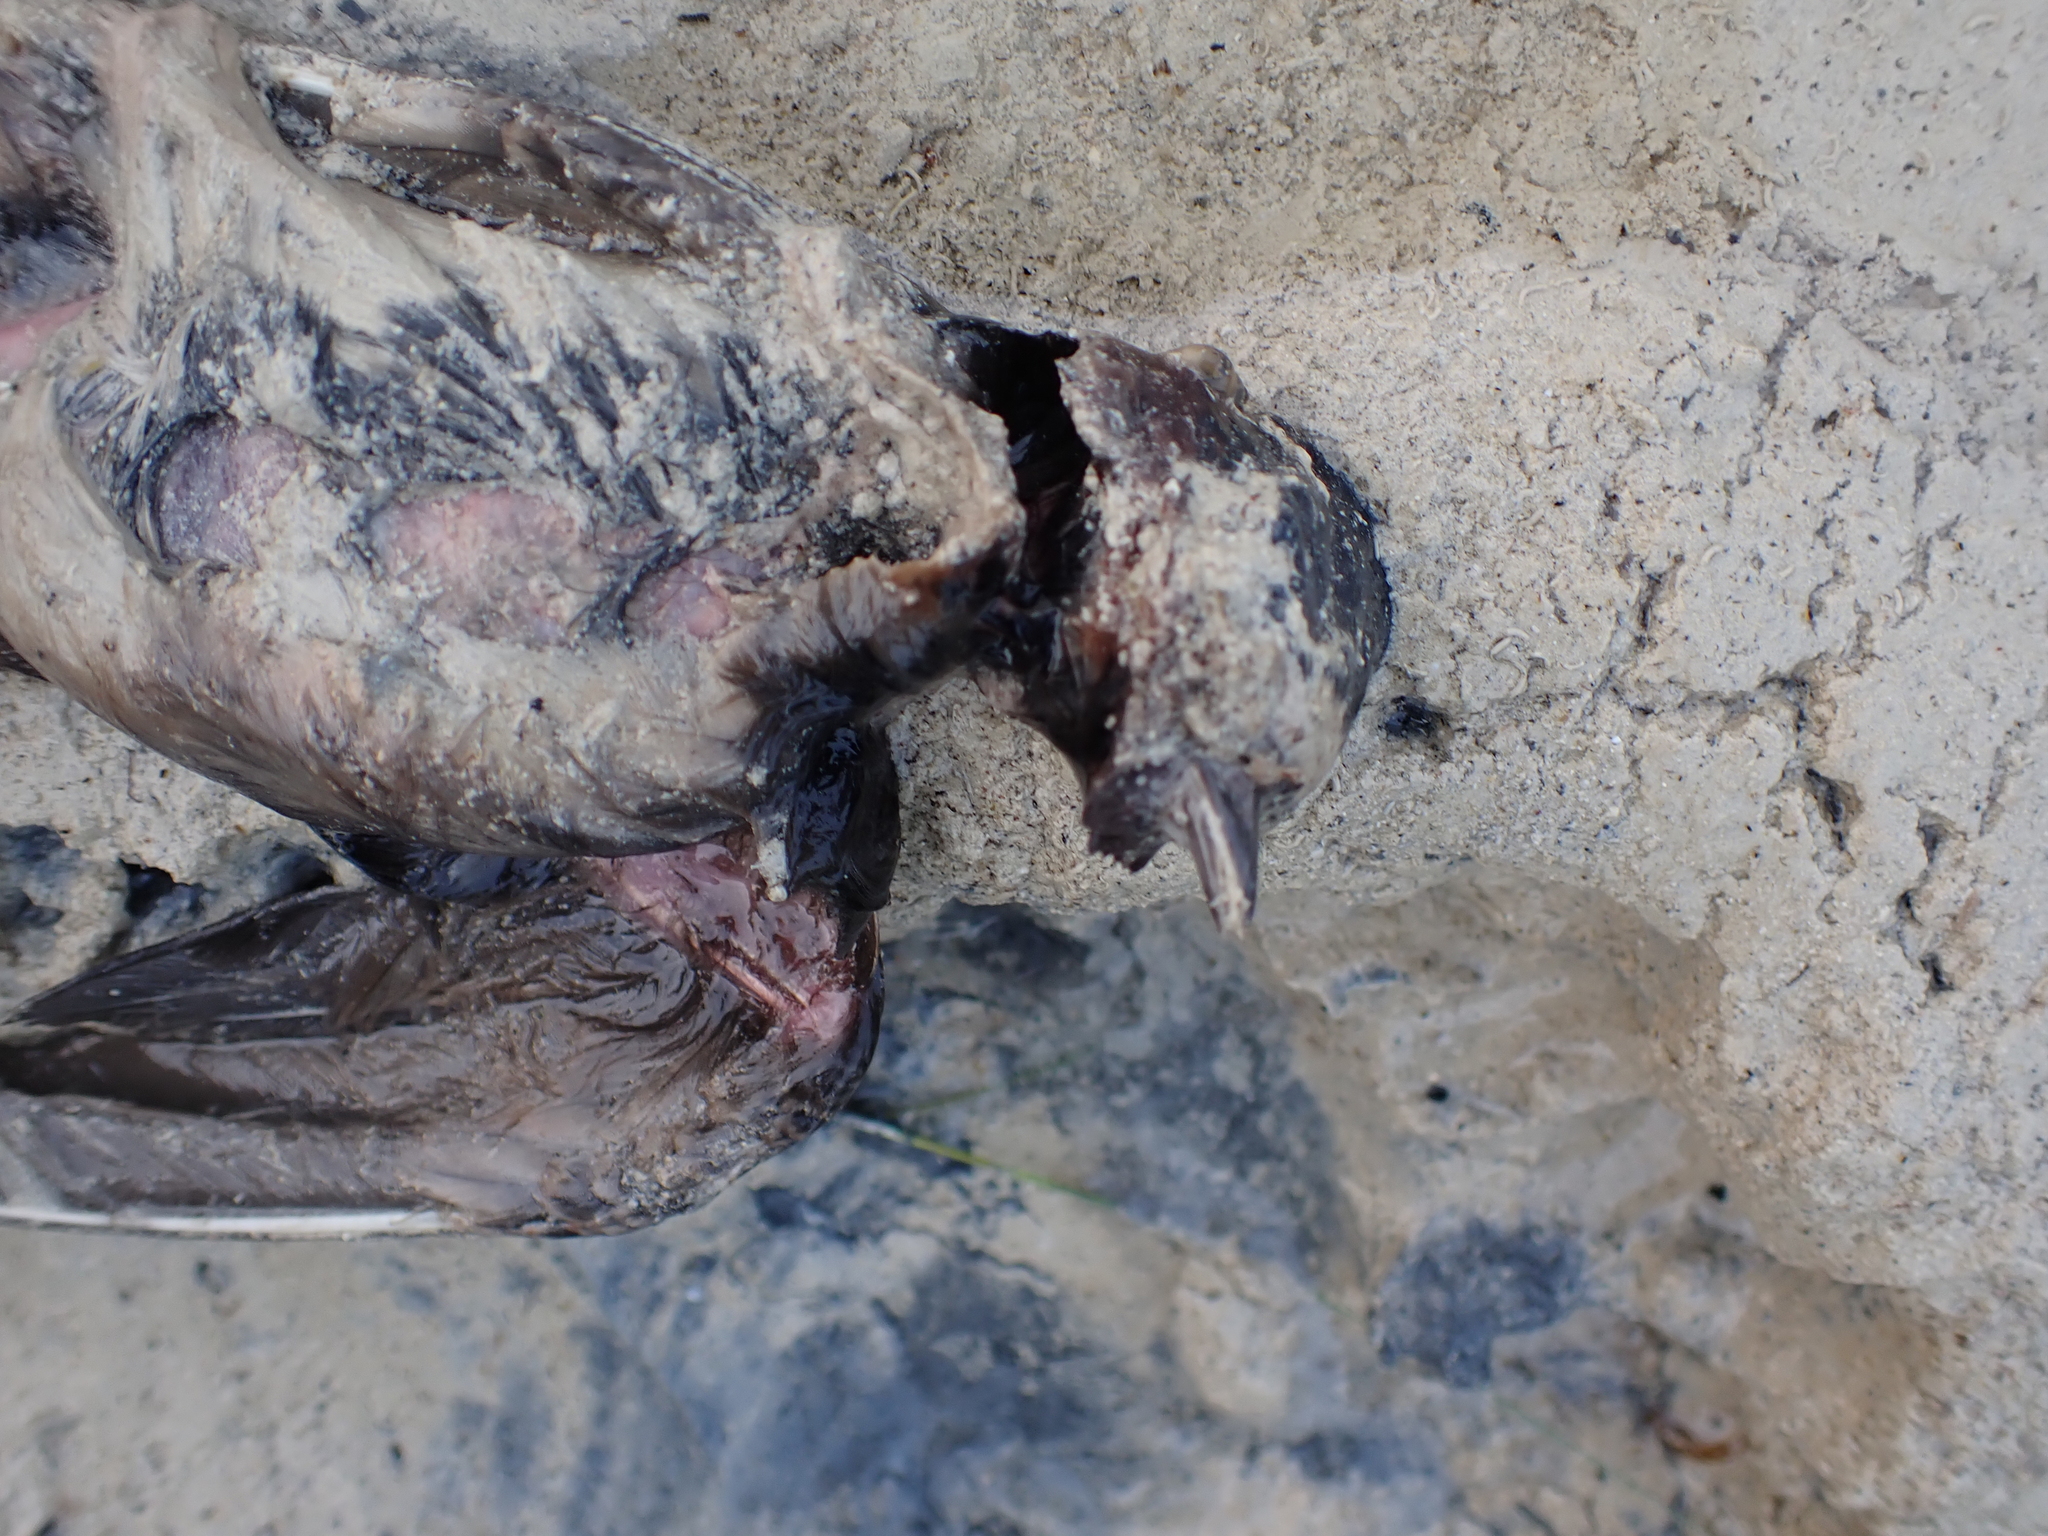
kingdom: Animalia
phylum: Chordata
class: Aves
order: Passeriformes
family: Hirundinidae
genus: Petrochelidon
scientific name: Petrochelidon pyrrhonota
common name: American cliff swallow
